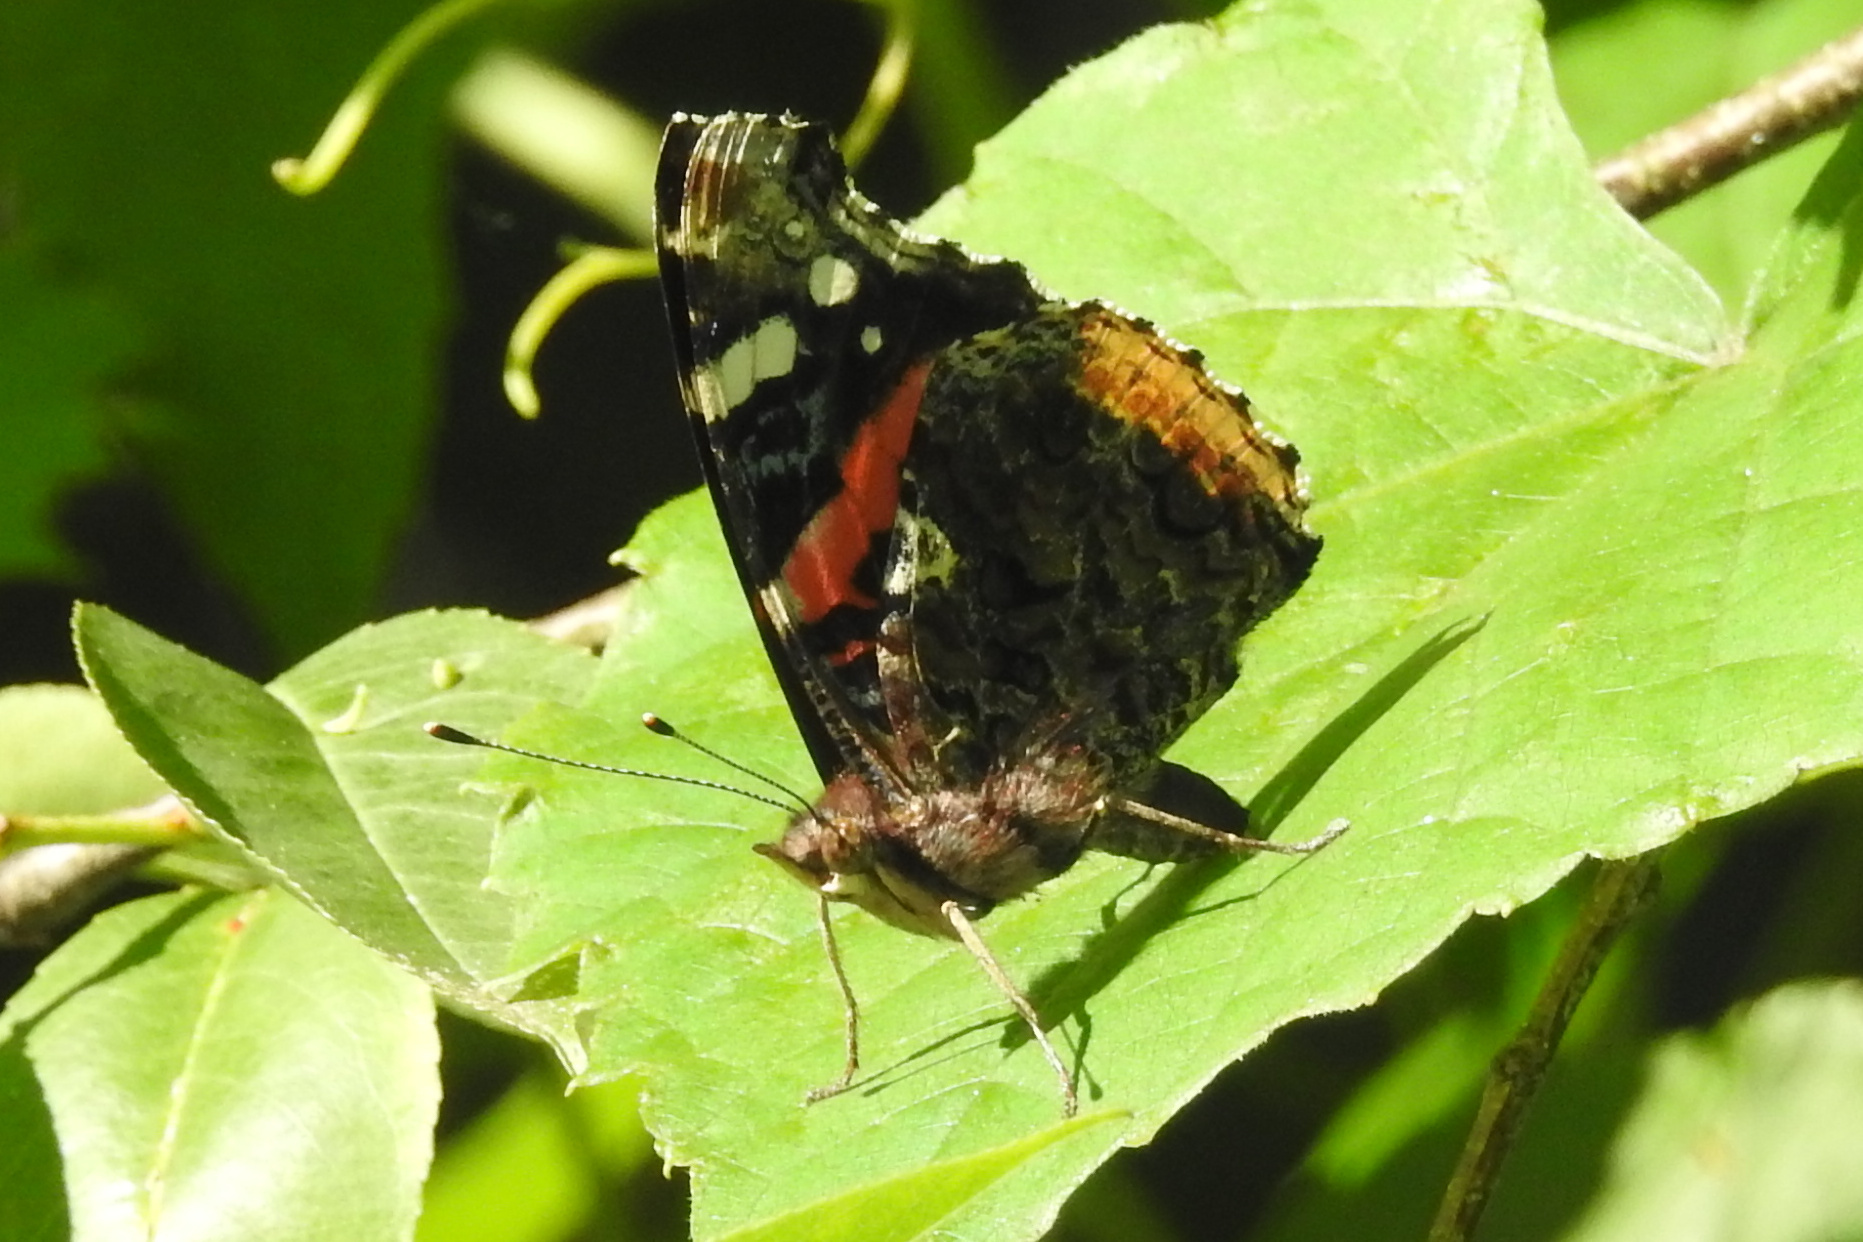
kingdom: Animalia
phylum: Arthropoda
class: Insecta
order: Lepidoptera
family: Nymphalidae
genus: Vanessa
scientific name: Vanessa atalanta
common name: Red admiral
